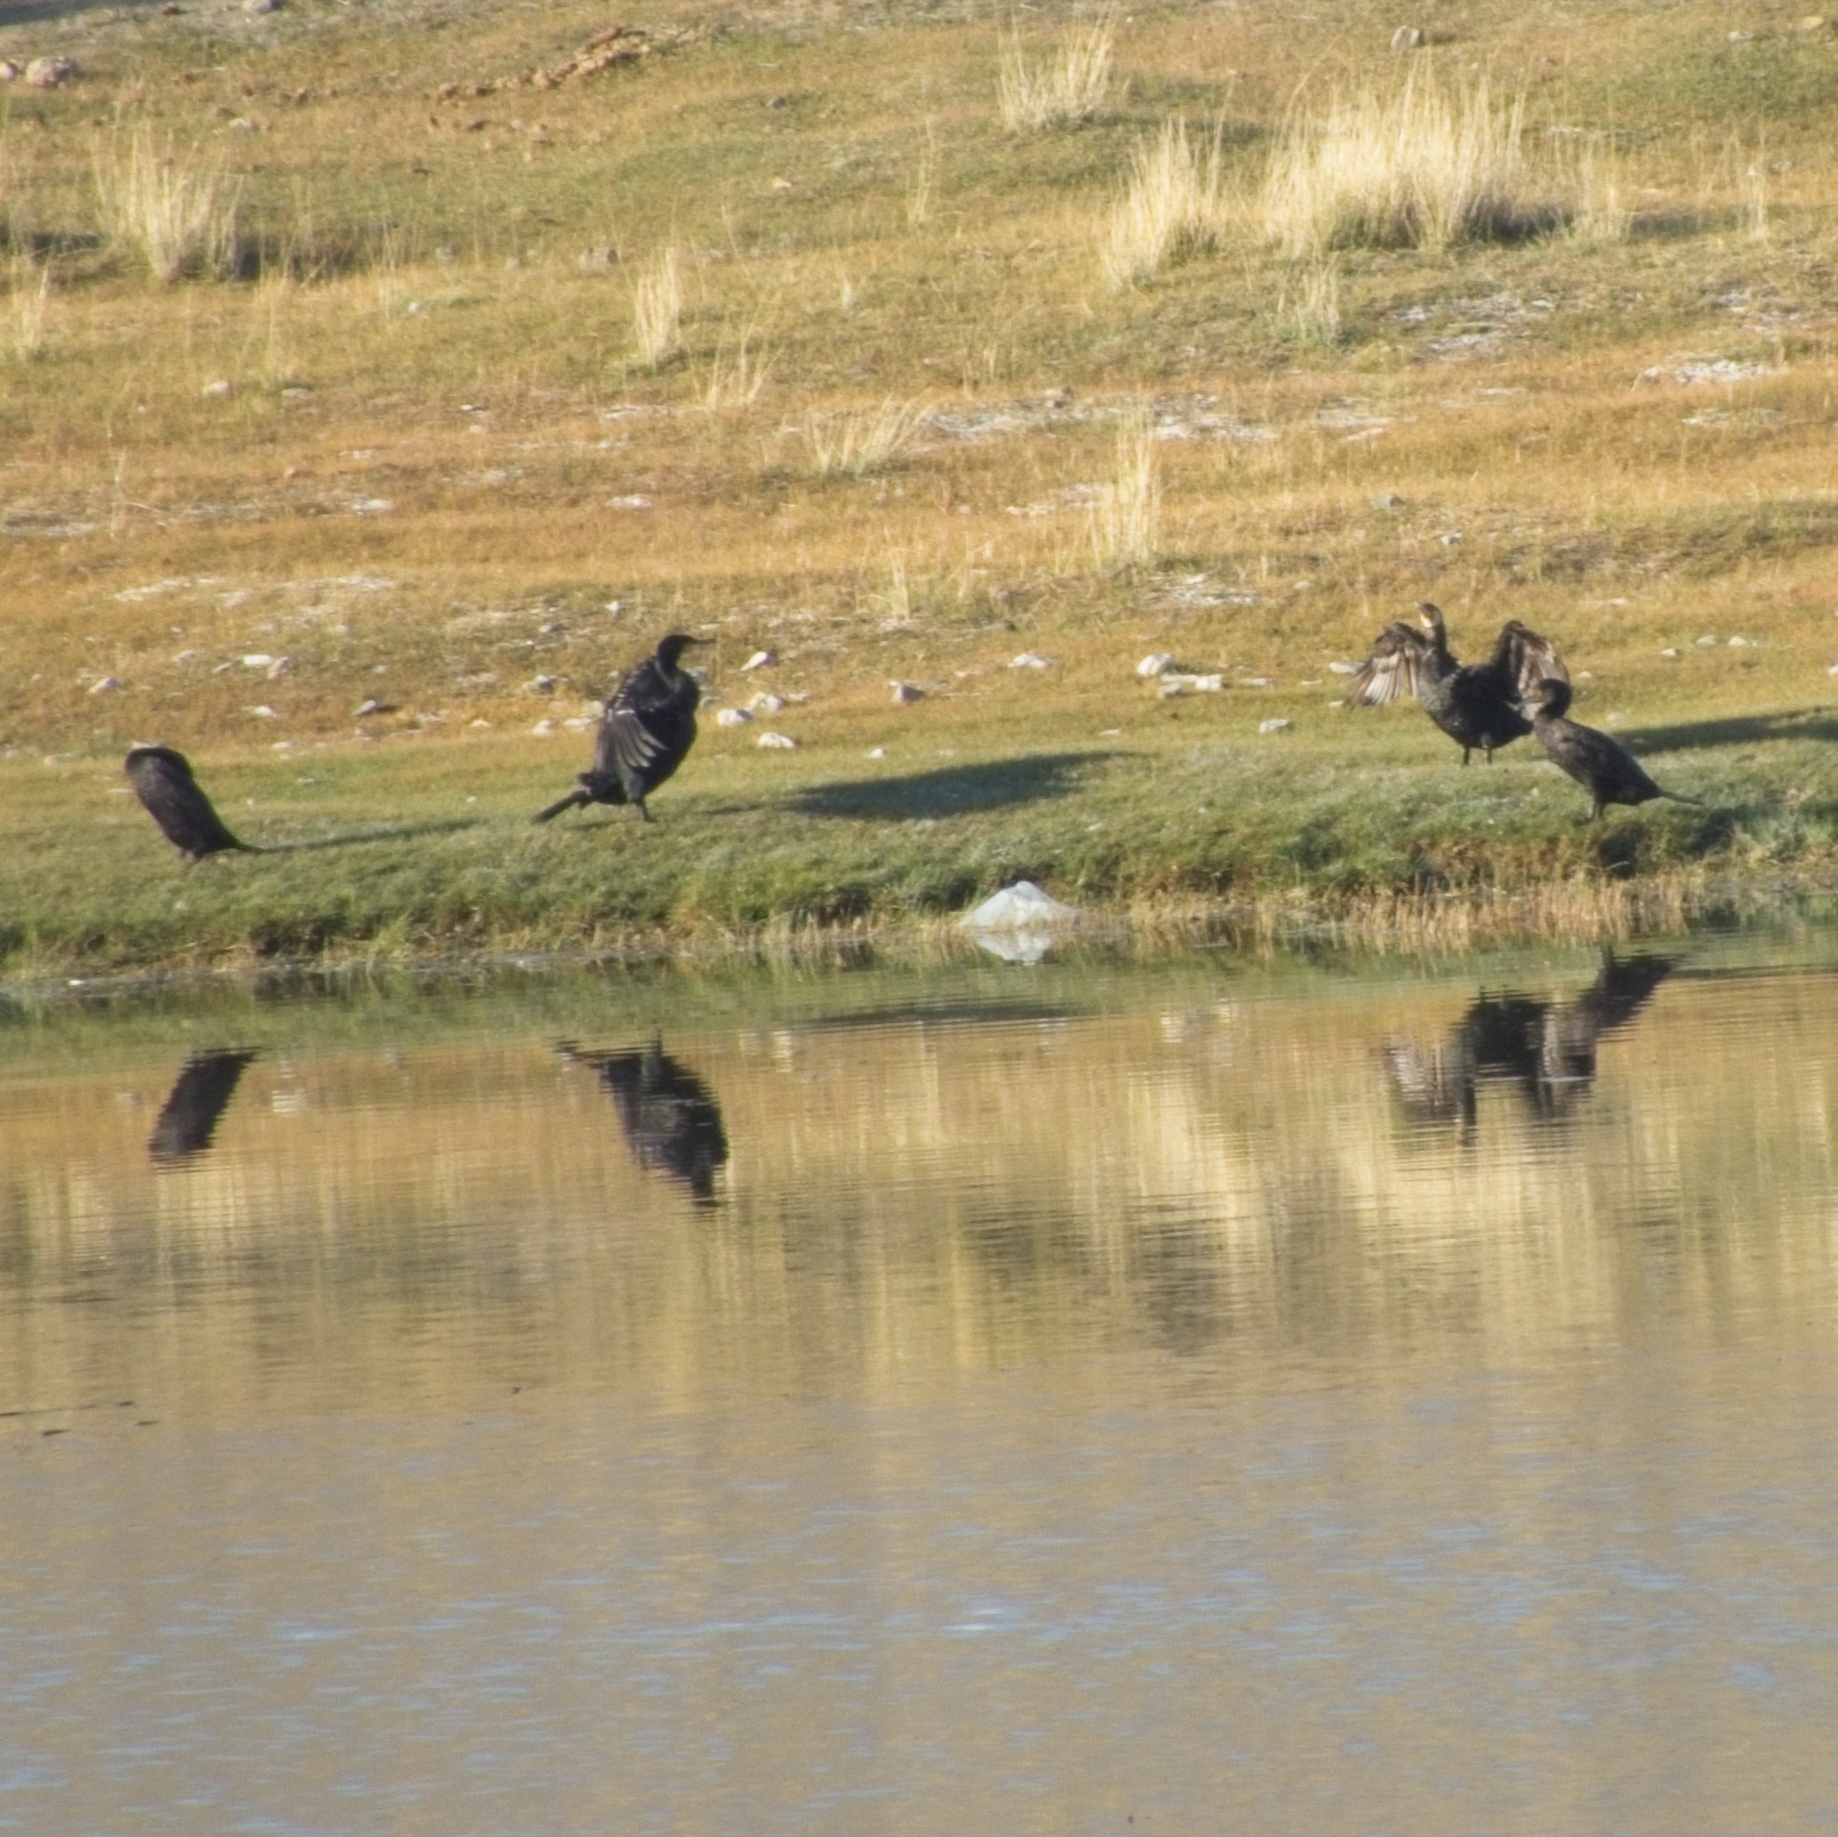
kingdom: Animalia
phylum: Chordata
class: Aves
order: Suliformes
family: Phalacrocoracidae
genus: Phalacrocorax
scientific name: Phalacrocorax carbo
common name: Great cormorant
